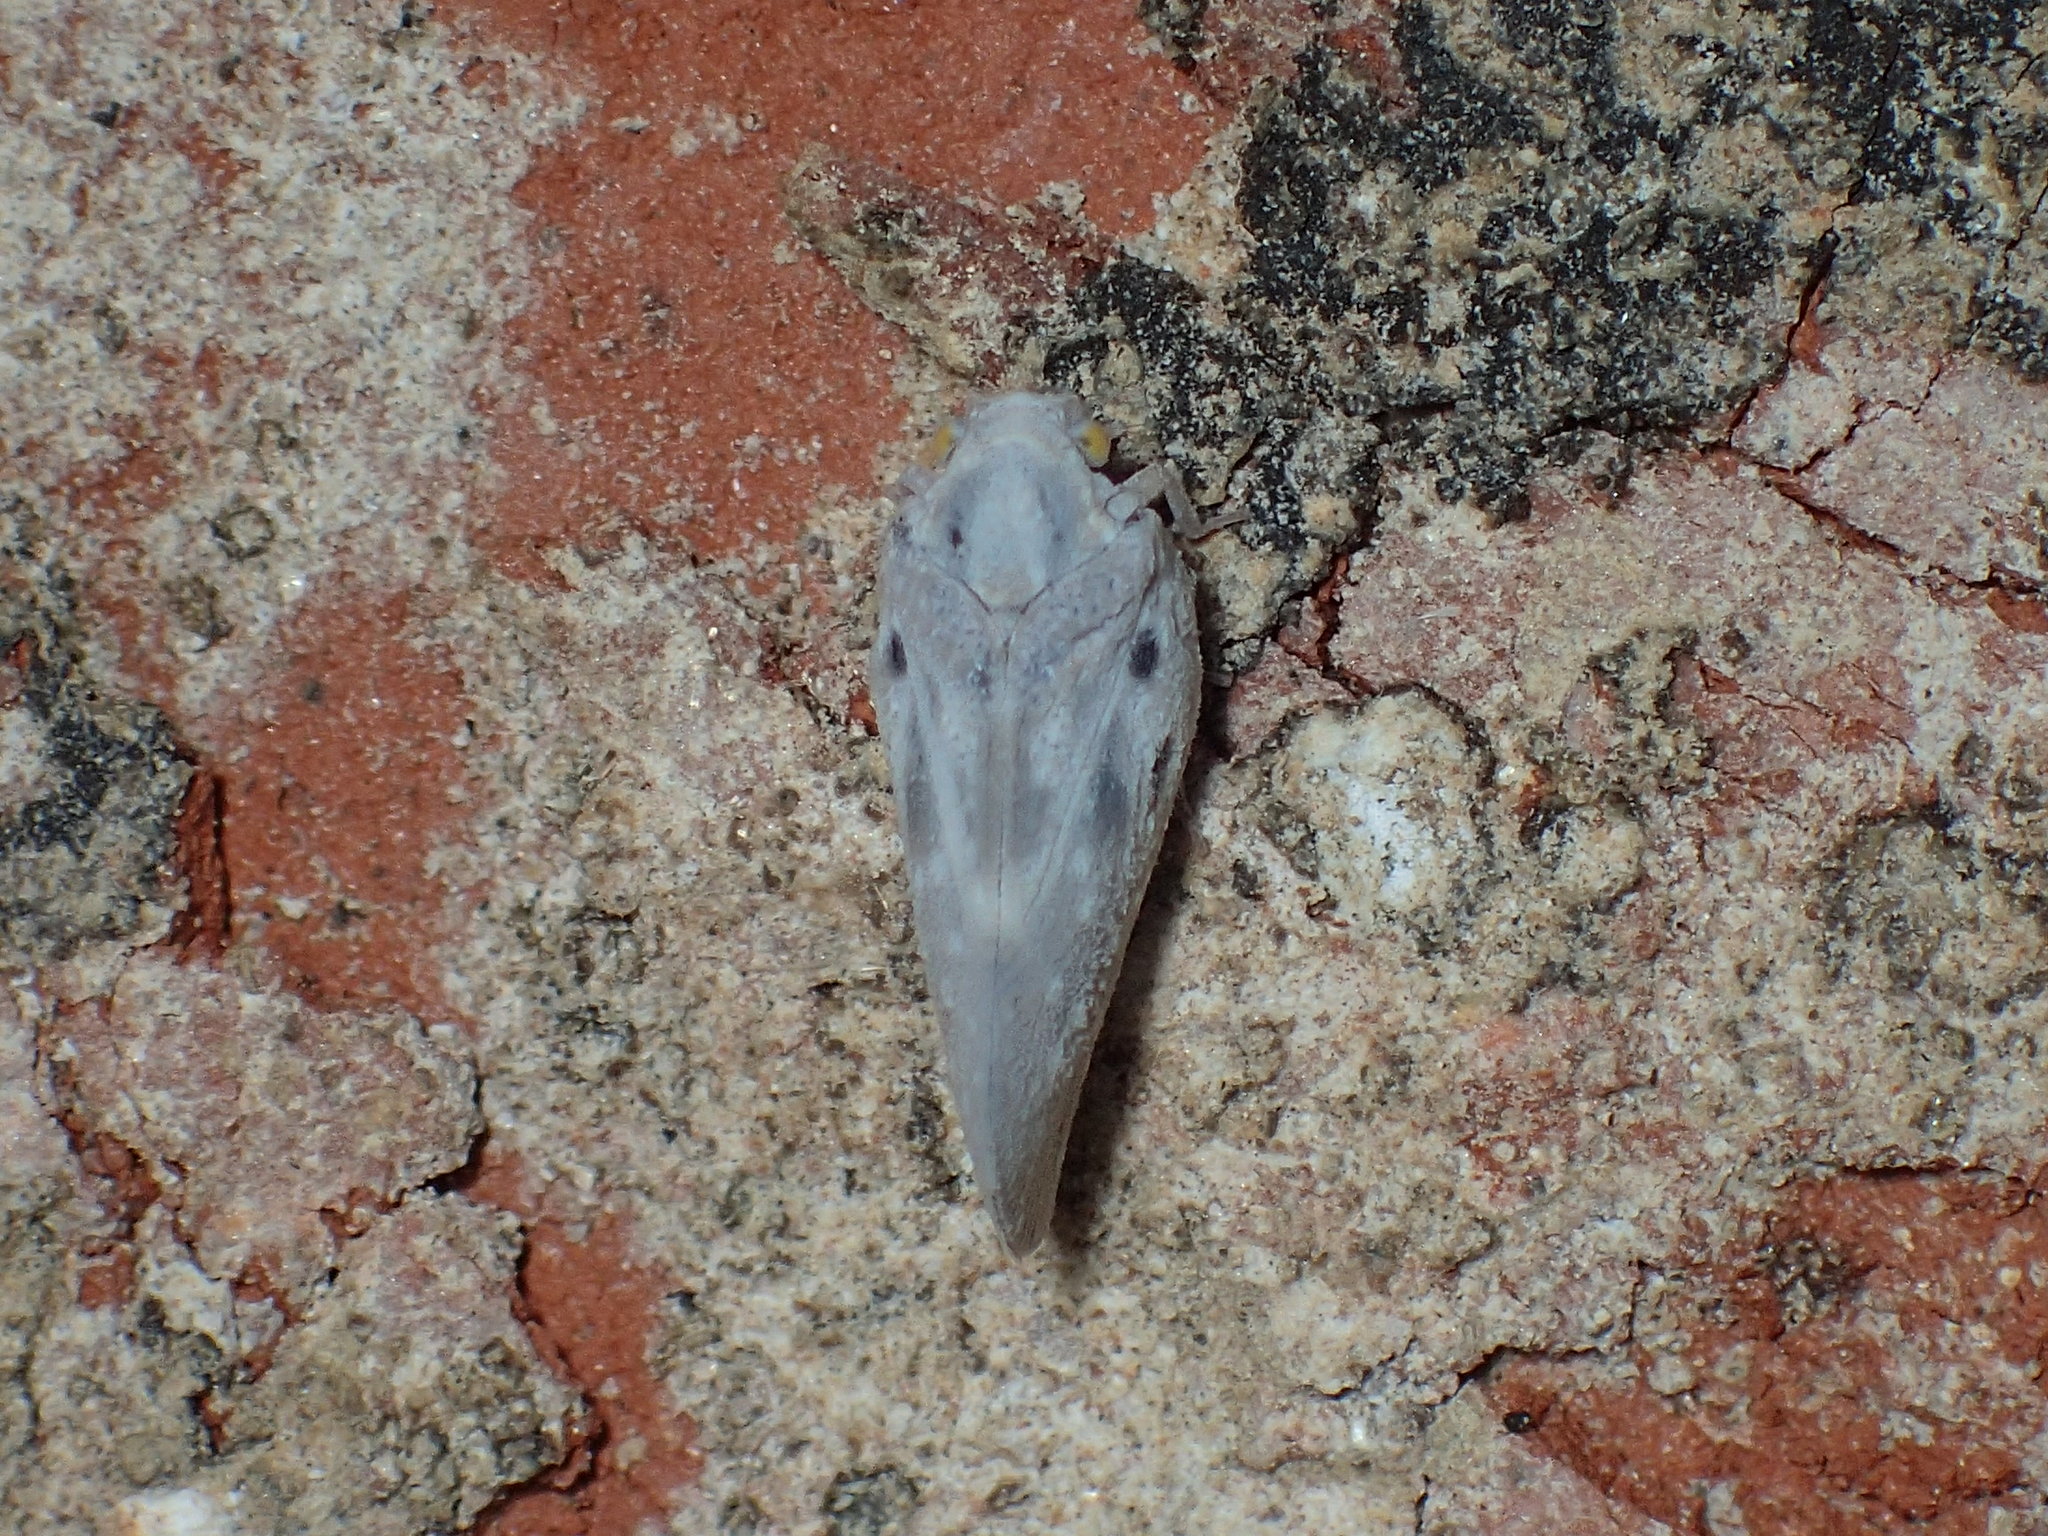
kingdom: Animalia
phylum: Arthropoda
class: Insecta
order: Hemiptera
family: Flatidae
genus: Metcalfa
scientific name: Metcalfa pruinosa
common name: Citrus flatid planthopper
